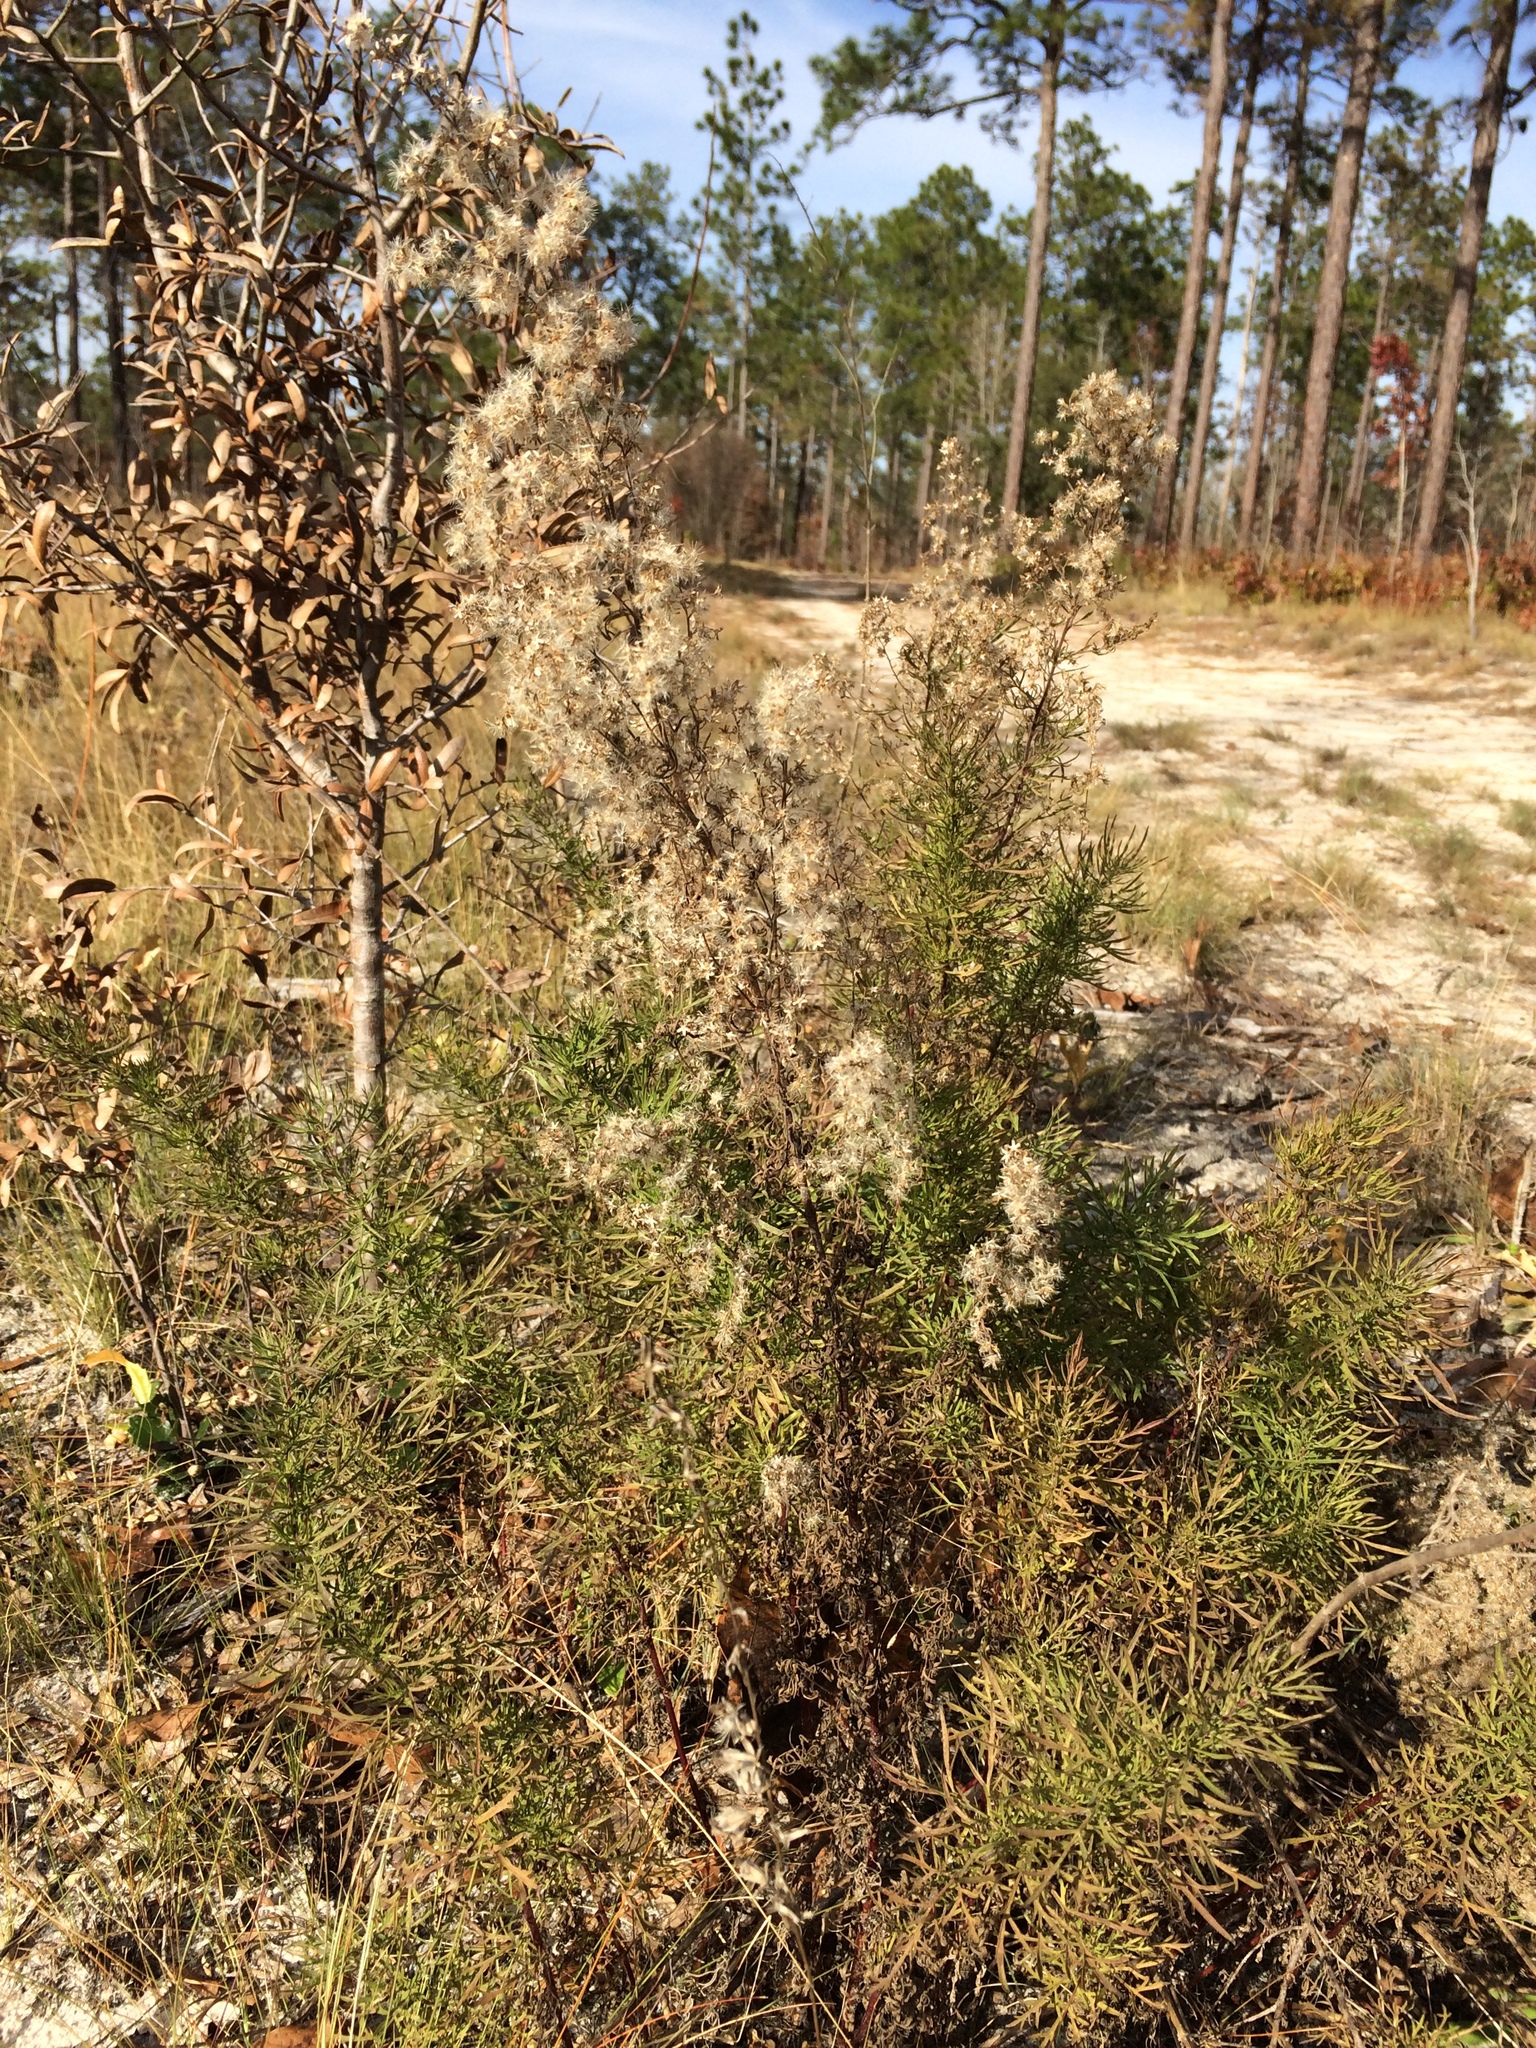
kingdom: Plantae
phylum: Tracheophyta
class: Magnoliopsida
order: Asterales
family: Asteraceae
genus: Eupatorium
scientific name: Eupatorium compositifolium
